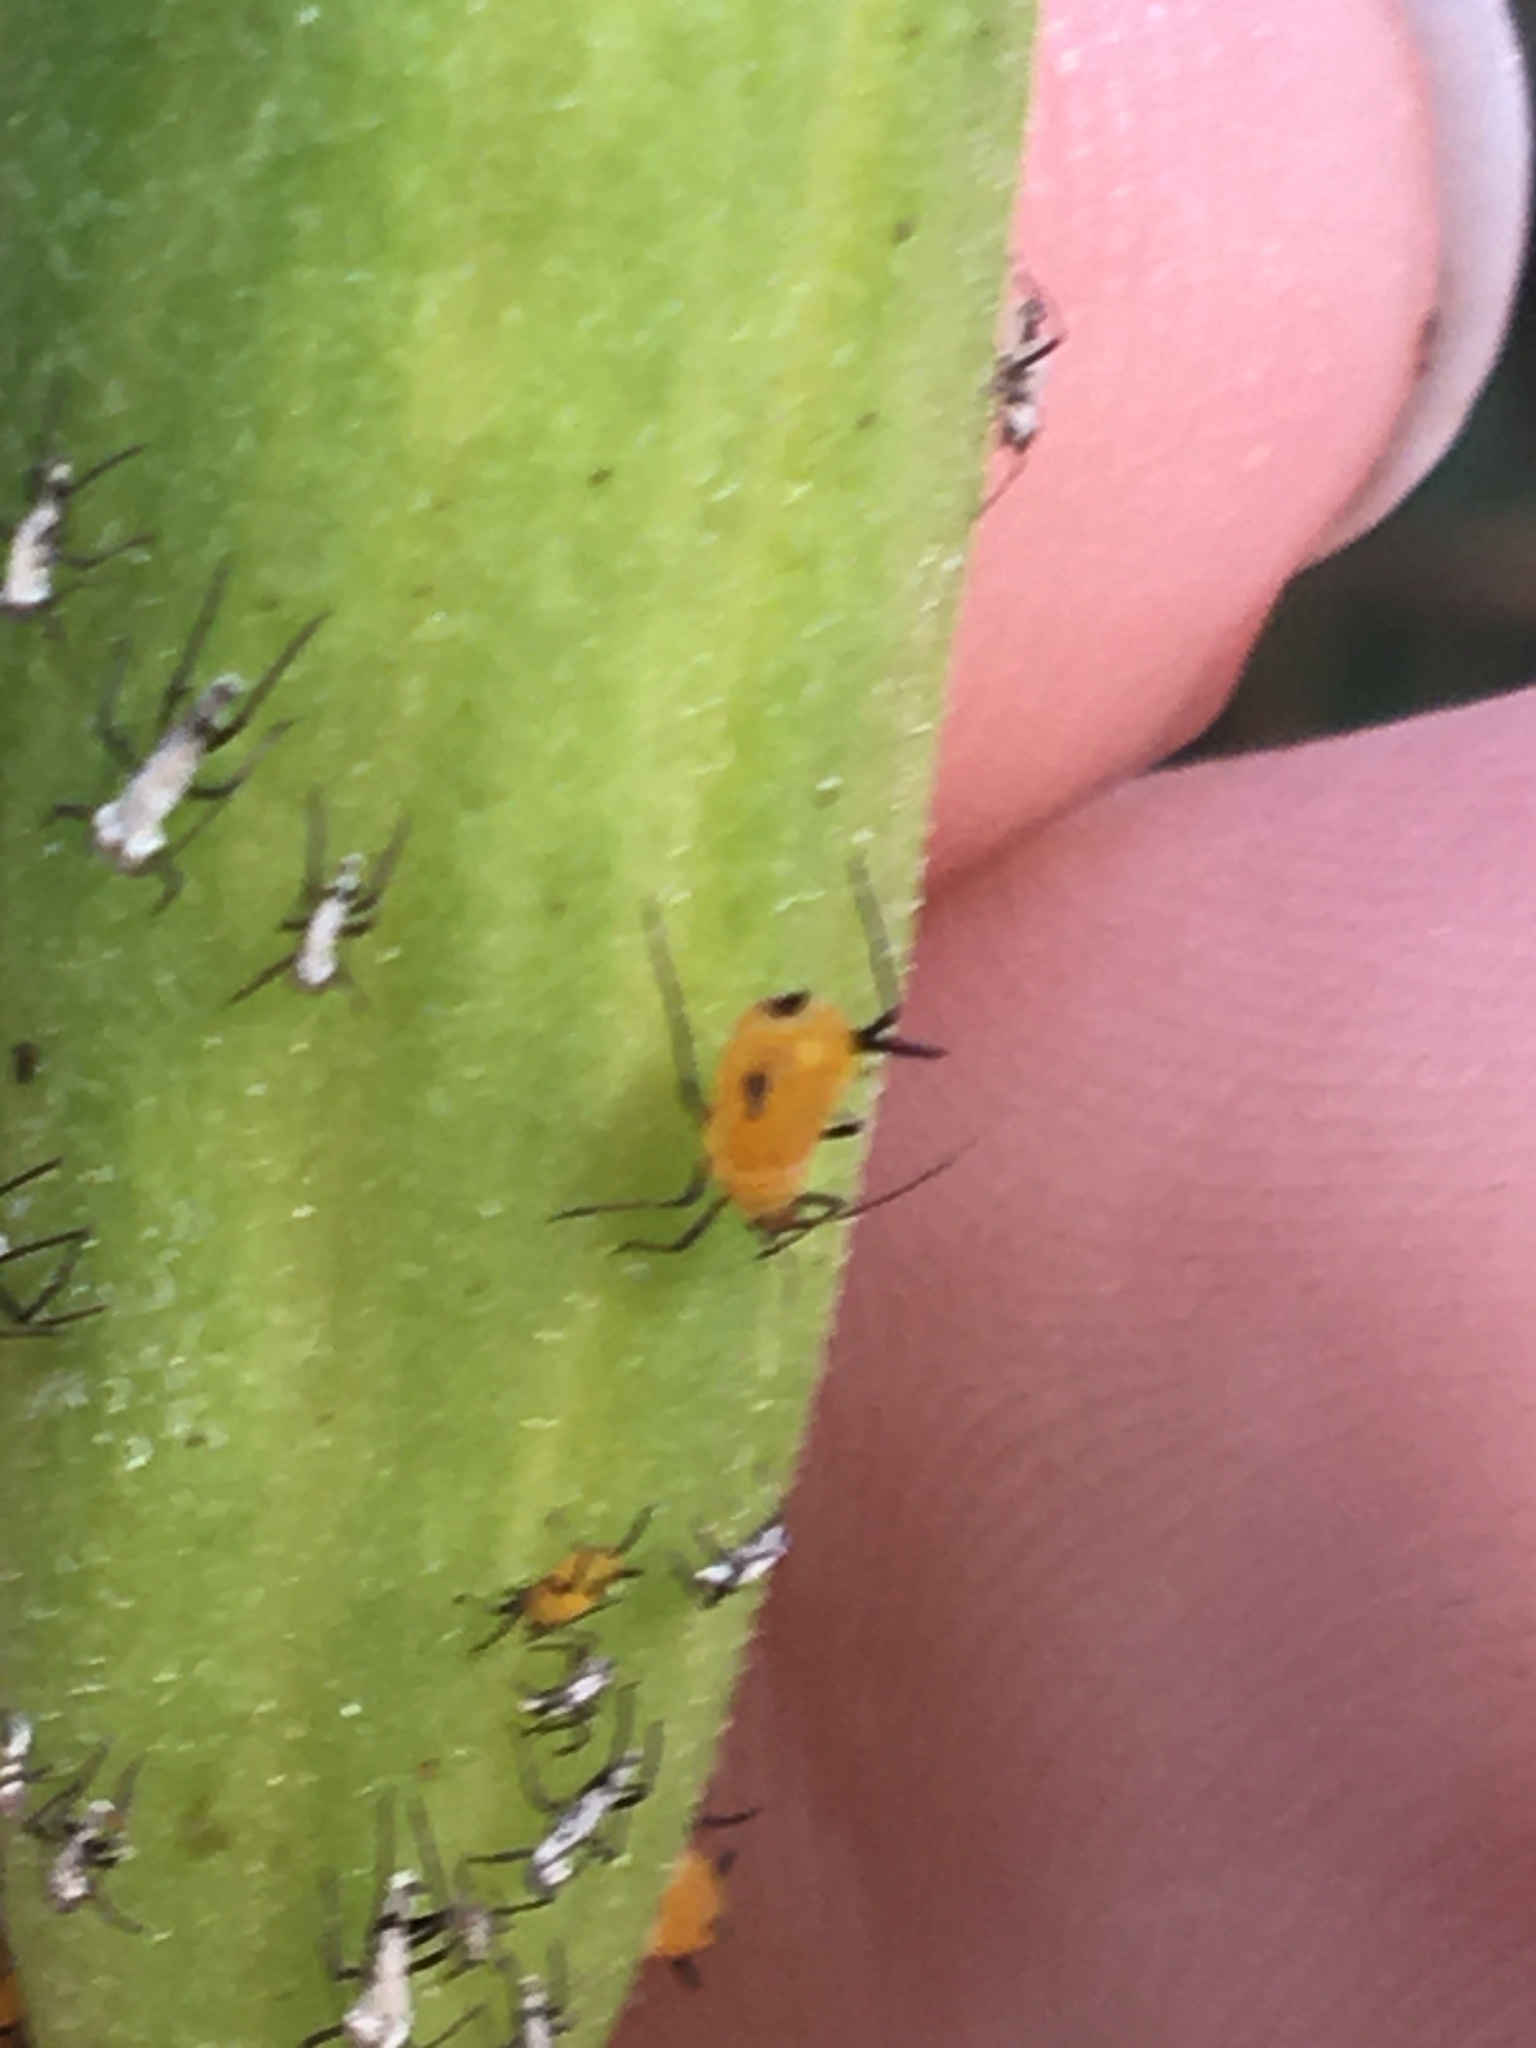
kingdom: Animalia
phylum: Arthropoda
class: Insecta
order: Hemiptera
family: Aphididae
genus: Aphis
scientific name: Aphis nerii
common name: Oleander aphid
